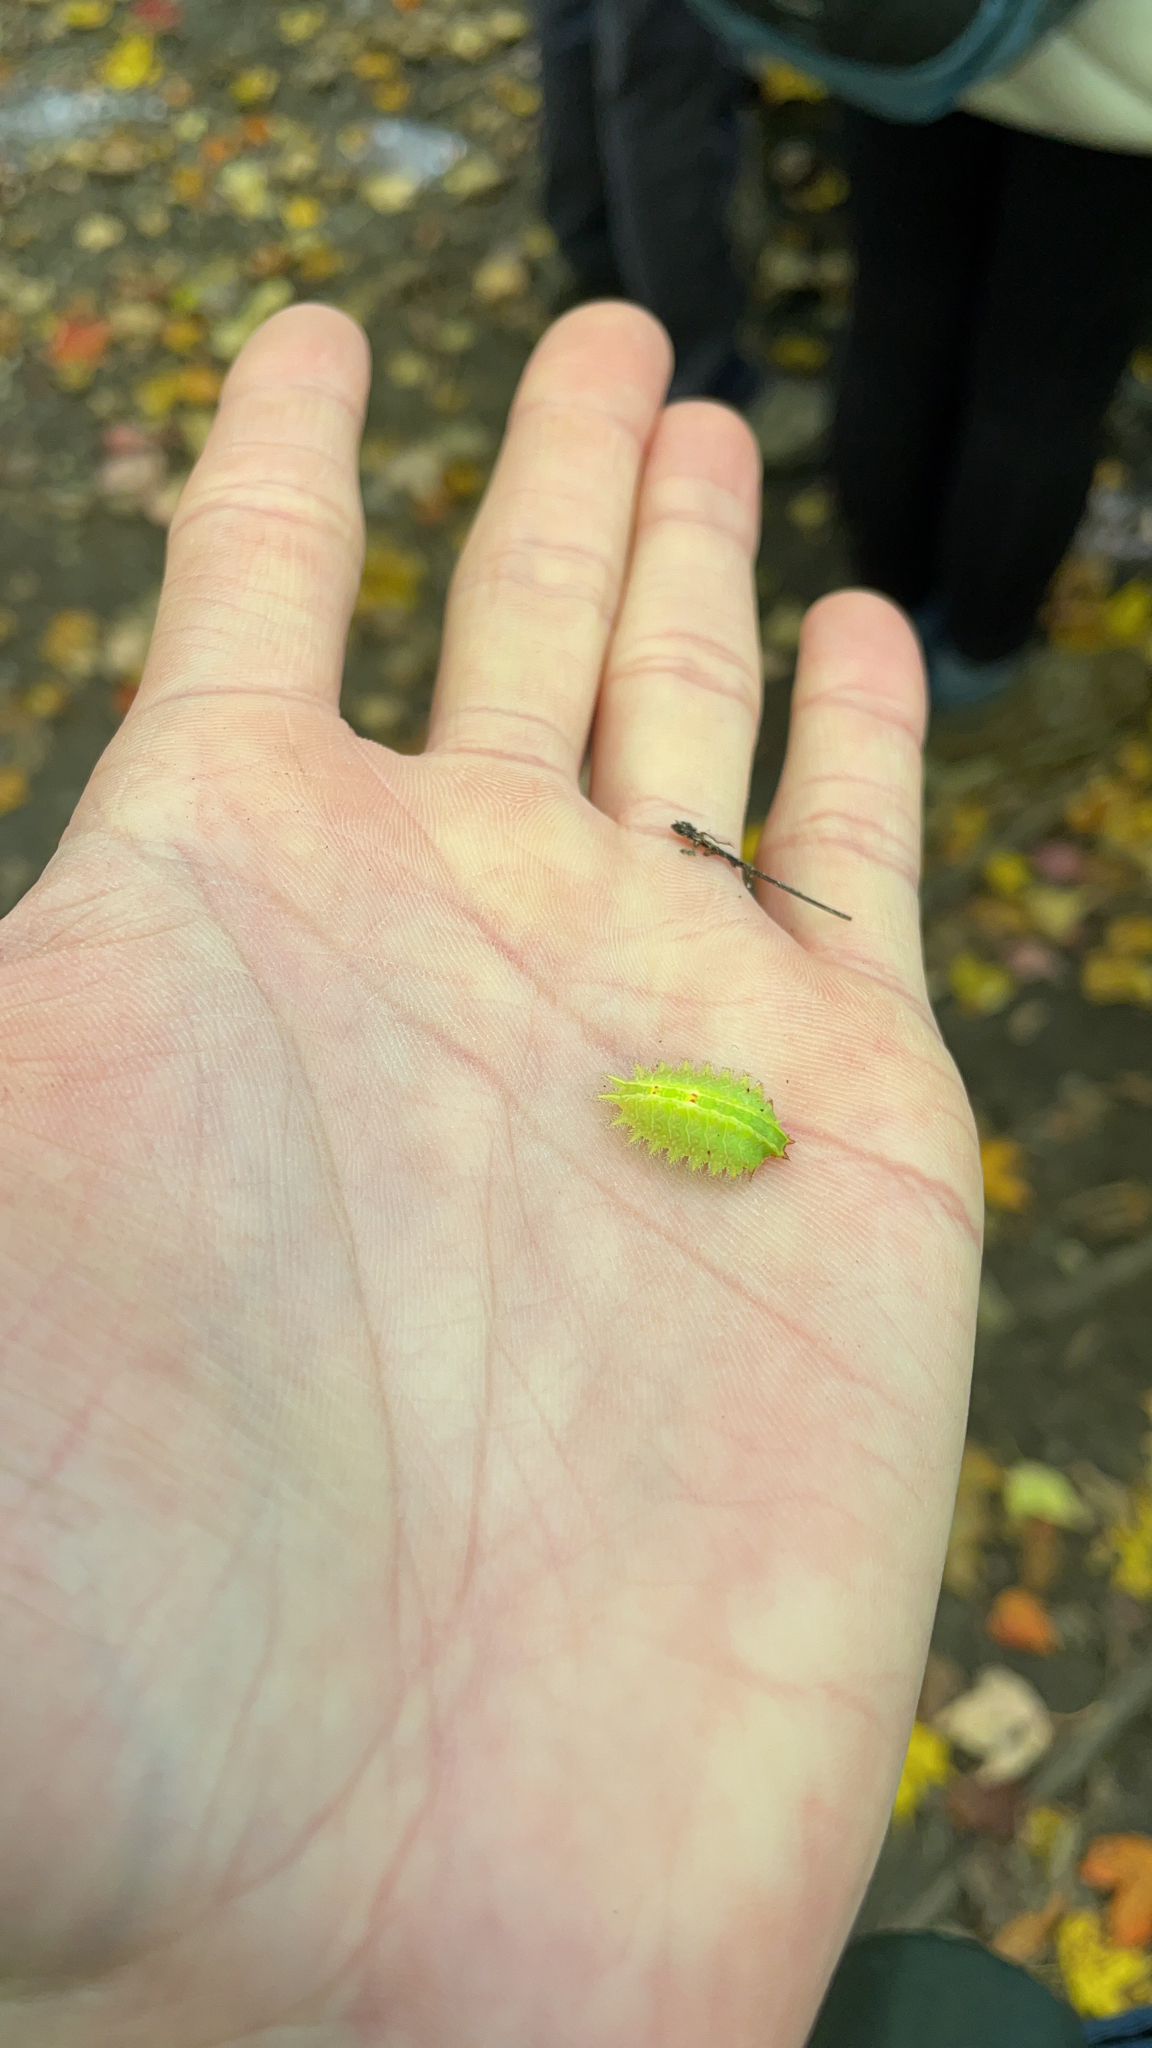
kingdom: Animalia
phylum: Arthropoda
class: Insecta
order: Lepidoptera
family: Limacodidae
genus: Isa
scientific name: Isa textula
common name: Crowned slug moth
